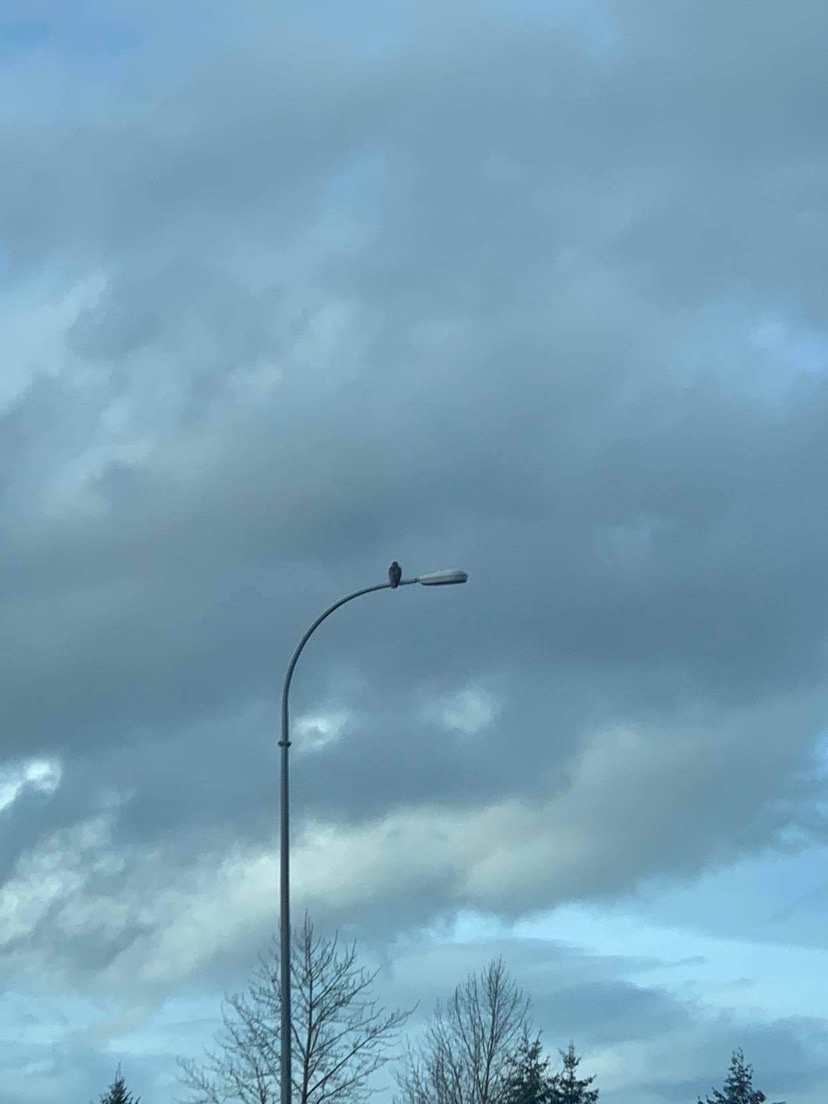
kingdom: Animalia
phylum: Chordata
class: Aves
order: Accipitriformes
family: Accipitridae
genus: Buteo
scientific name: Buteo jamaicensis
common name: Red-tailed hawk
